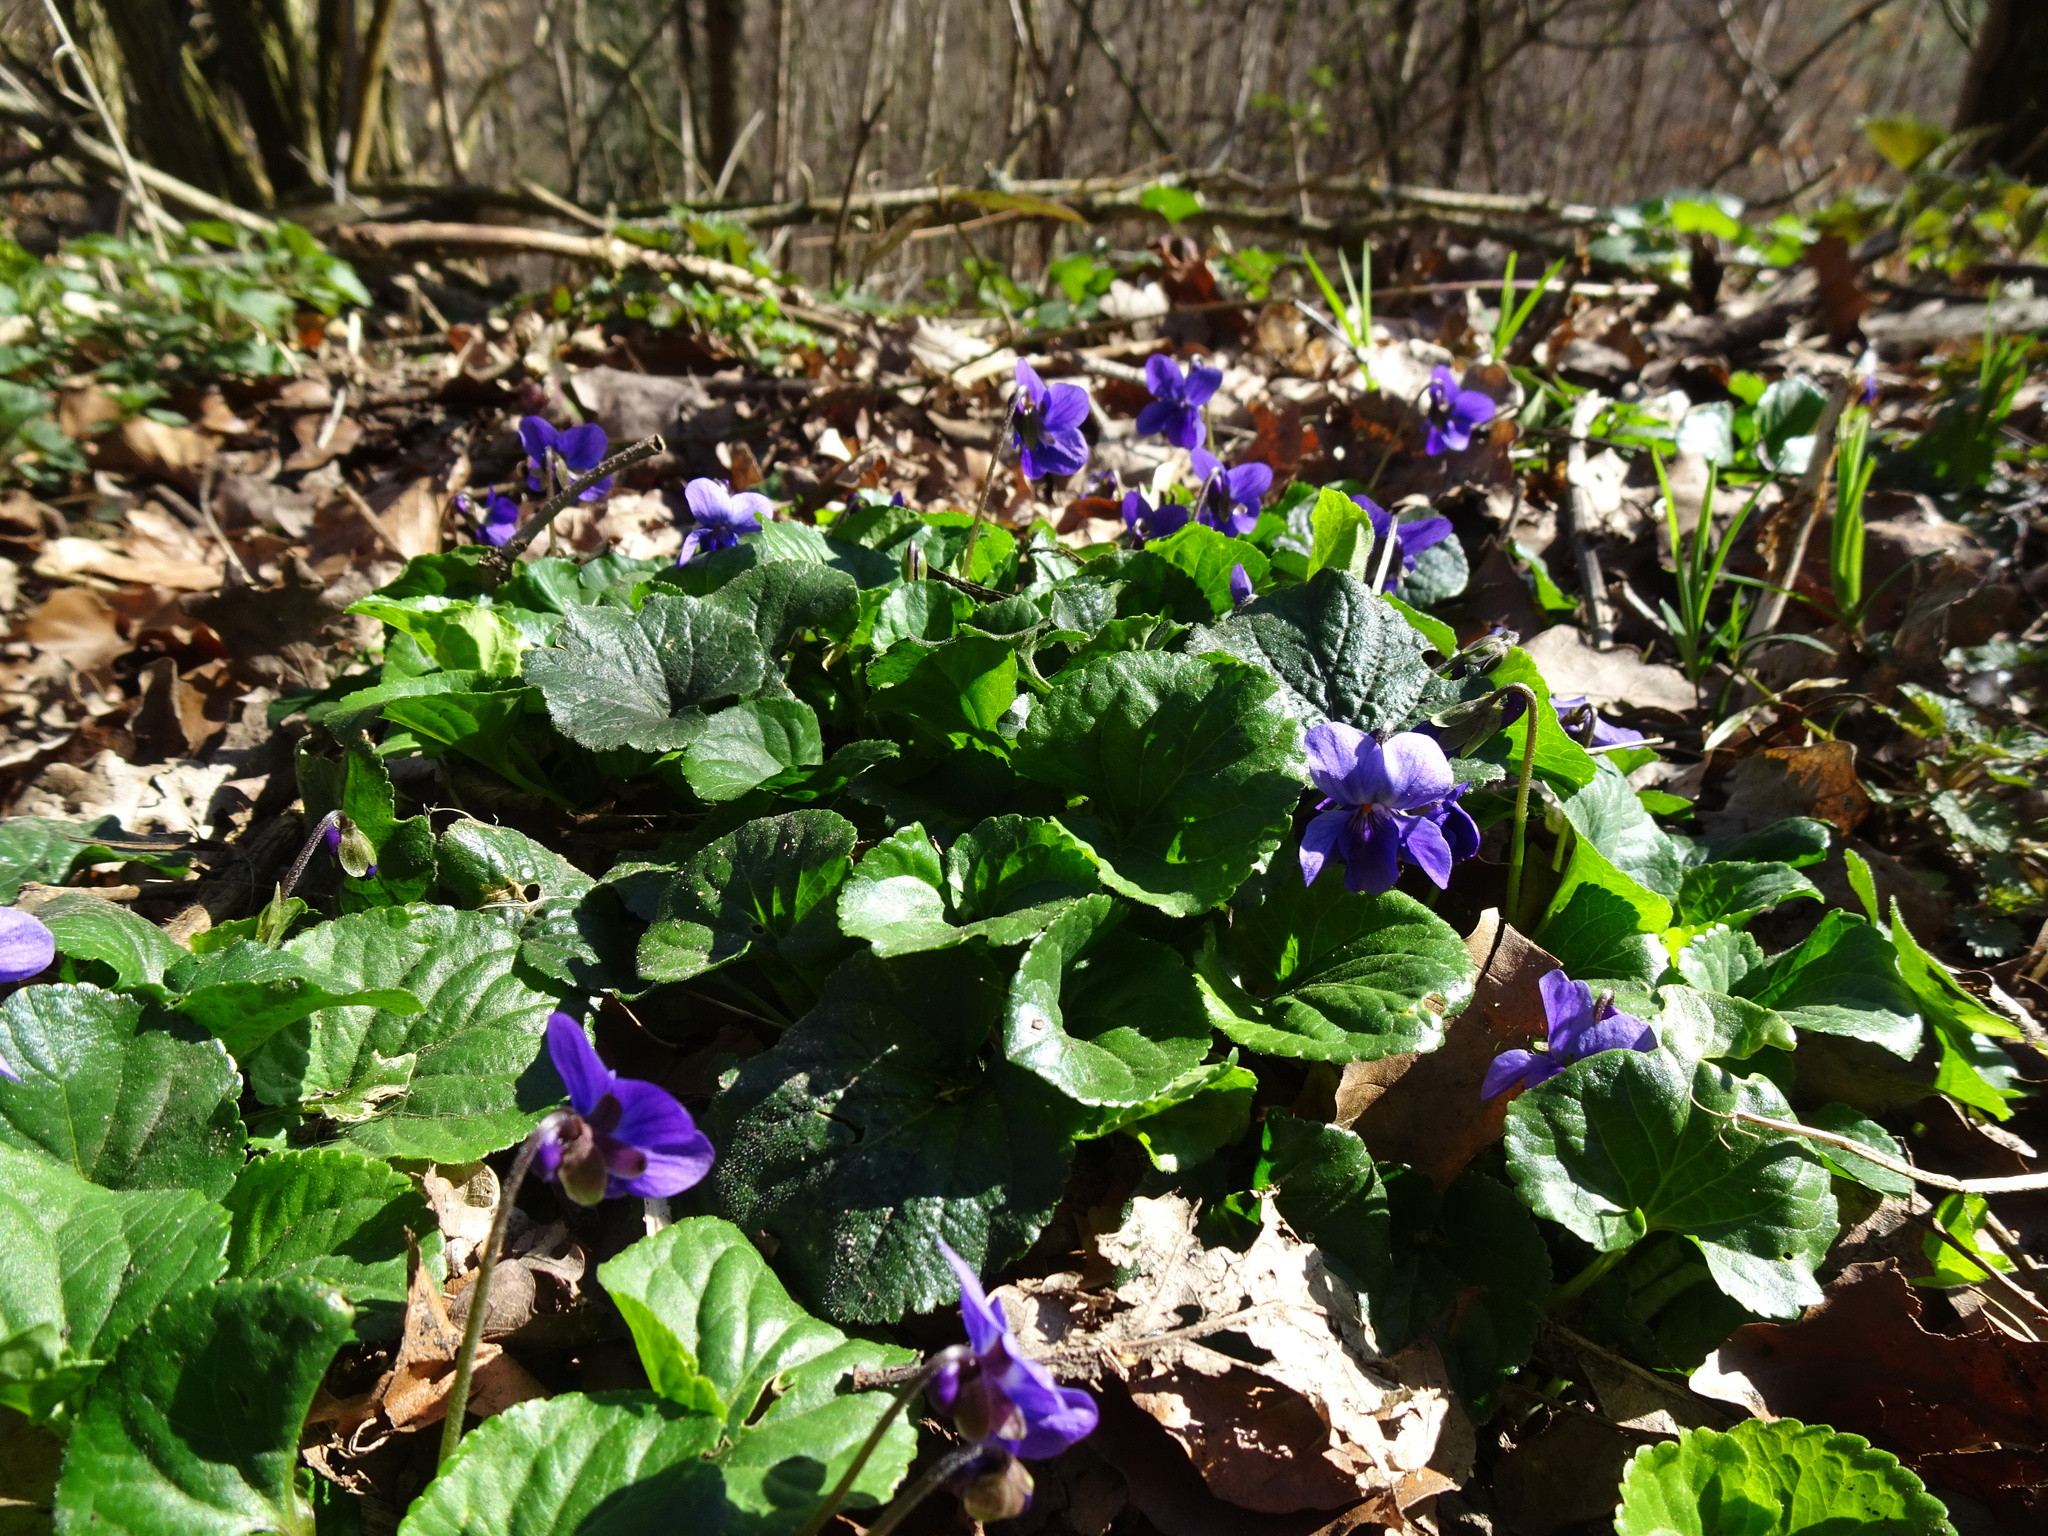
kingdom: Plantae
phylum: Tracheophyta
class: Magnoliopsida
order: Malpighiales
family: Violaceae
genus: Viola
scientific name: Viola odorata
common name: Sweet violet
